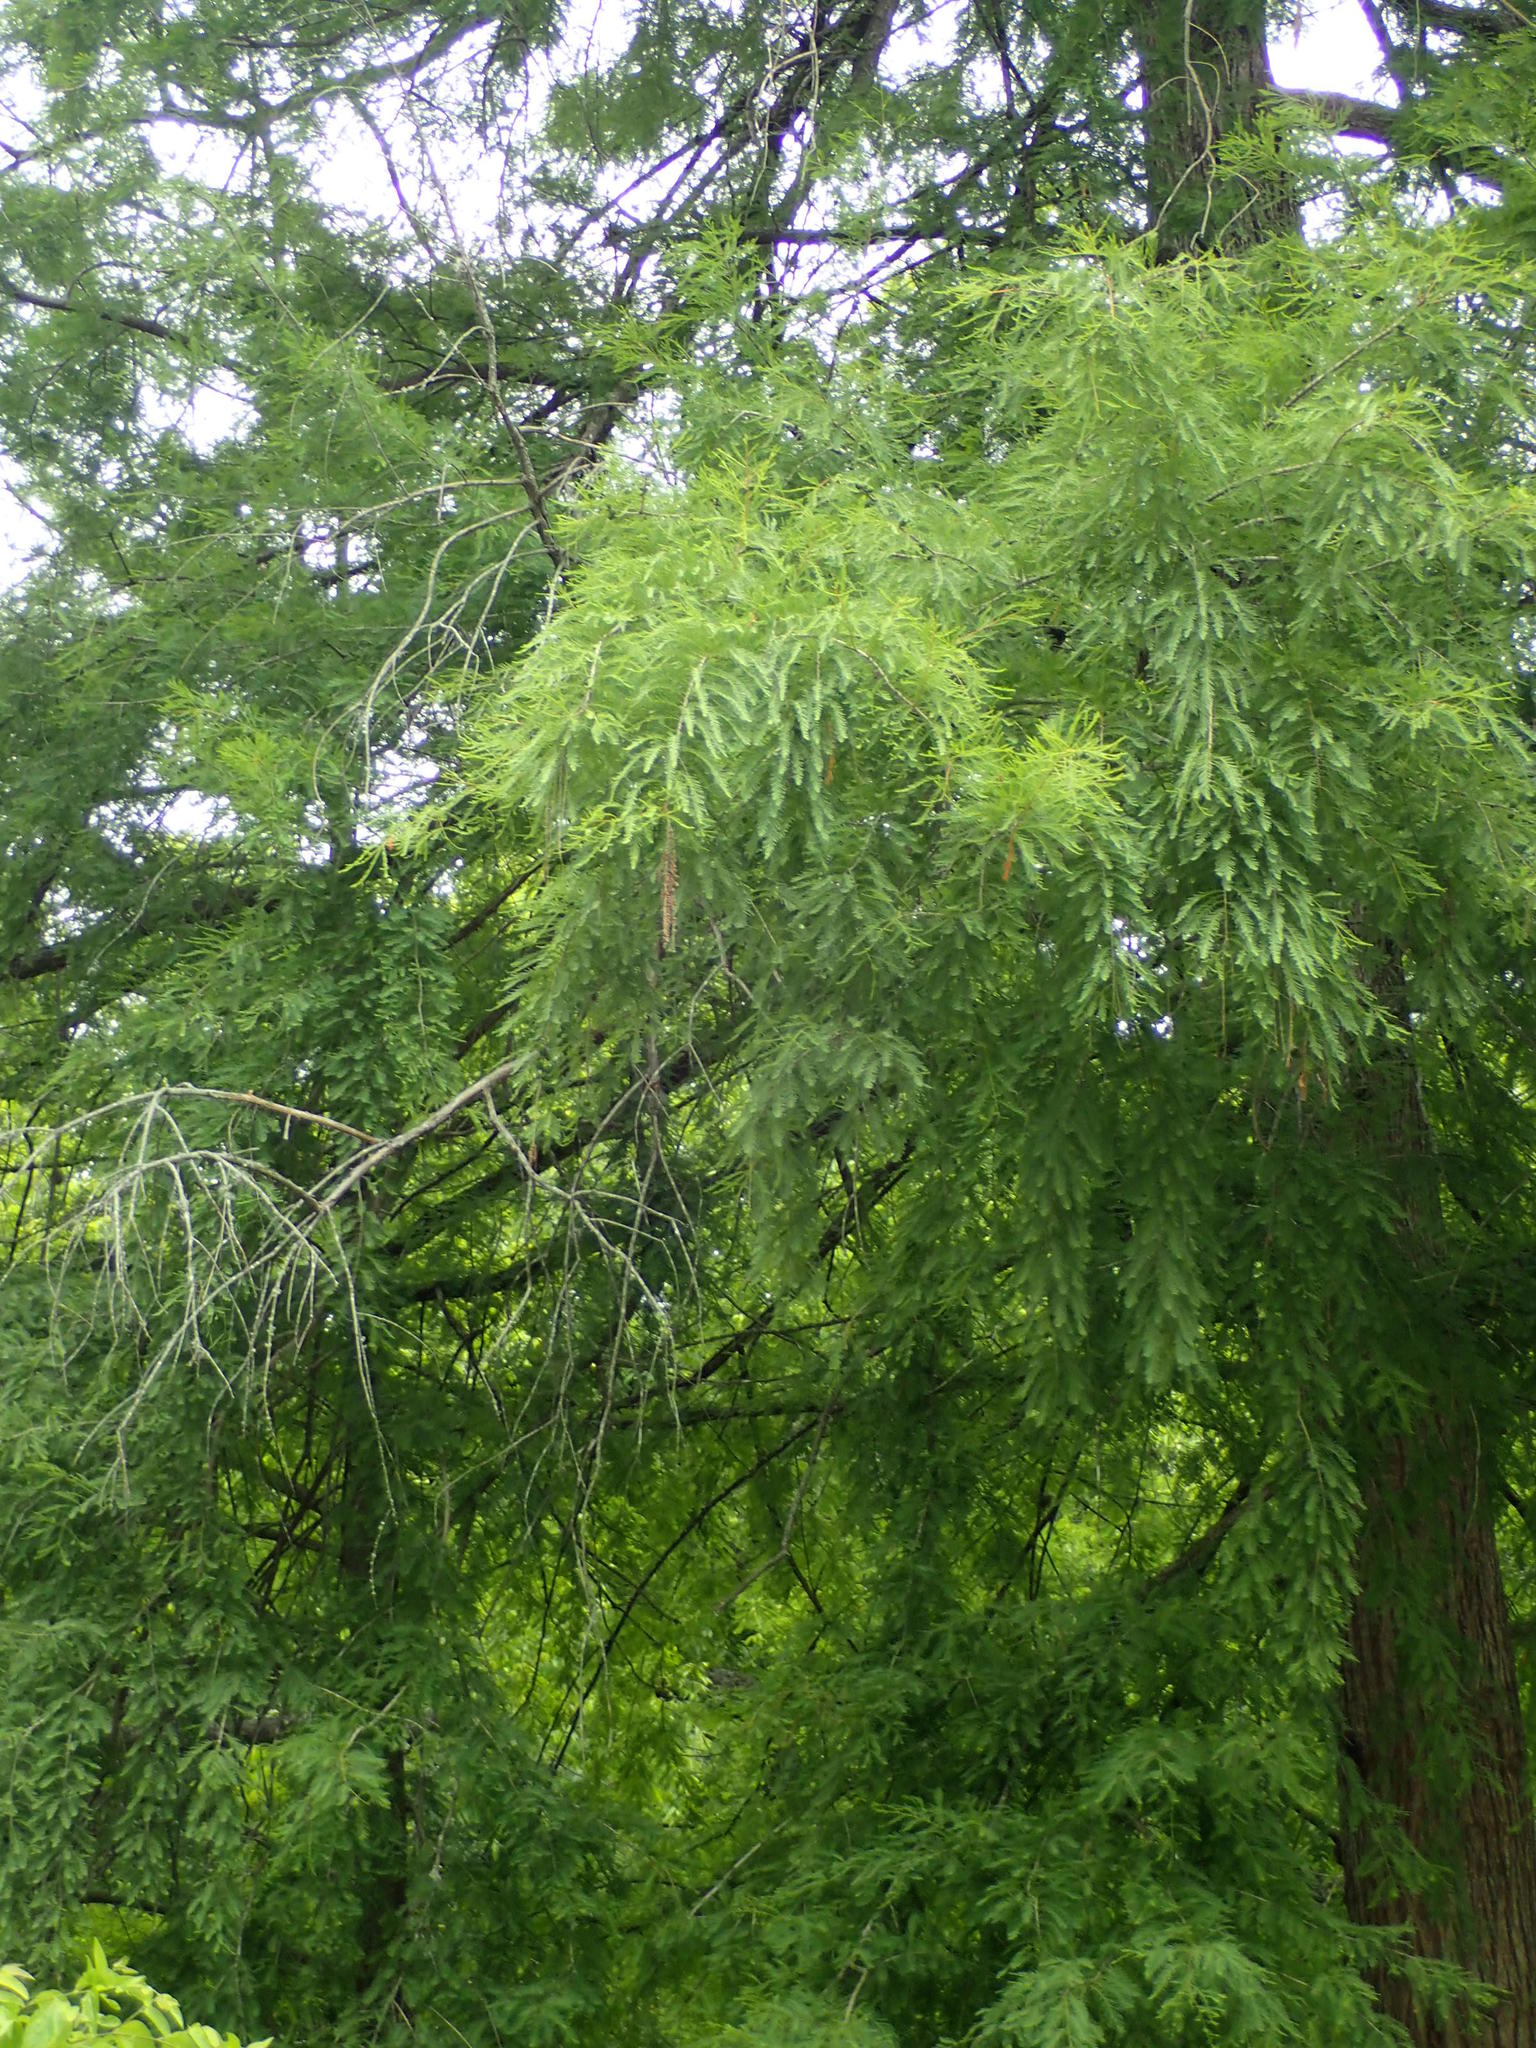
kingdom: Plantae
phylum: Tracheophyta
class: Pinopsida
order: Pinales
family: Cupressaceae
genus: Taxodium
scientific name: Taxodium distichum
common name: Bald cypress
